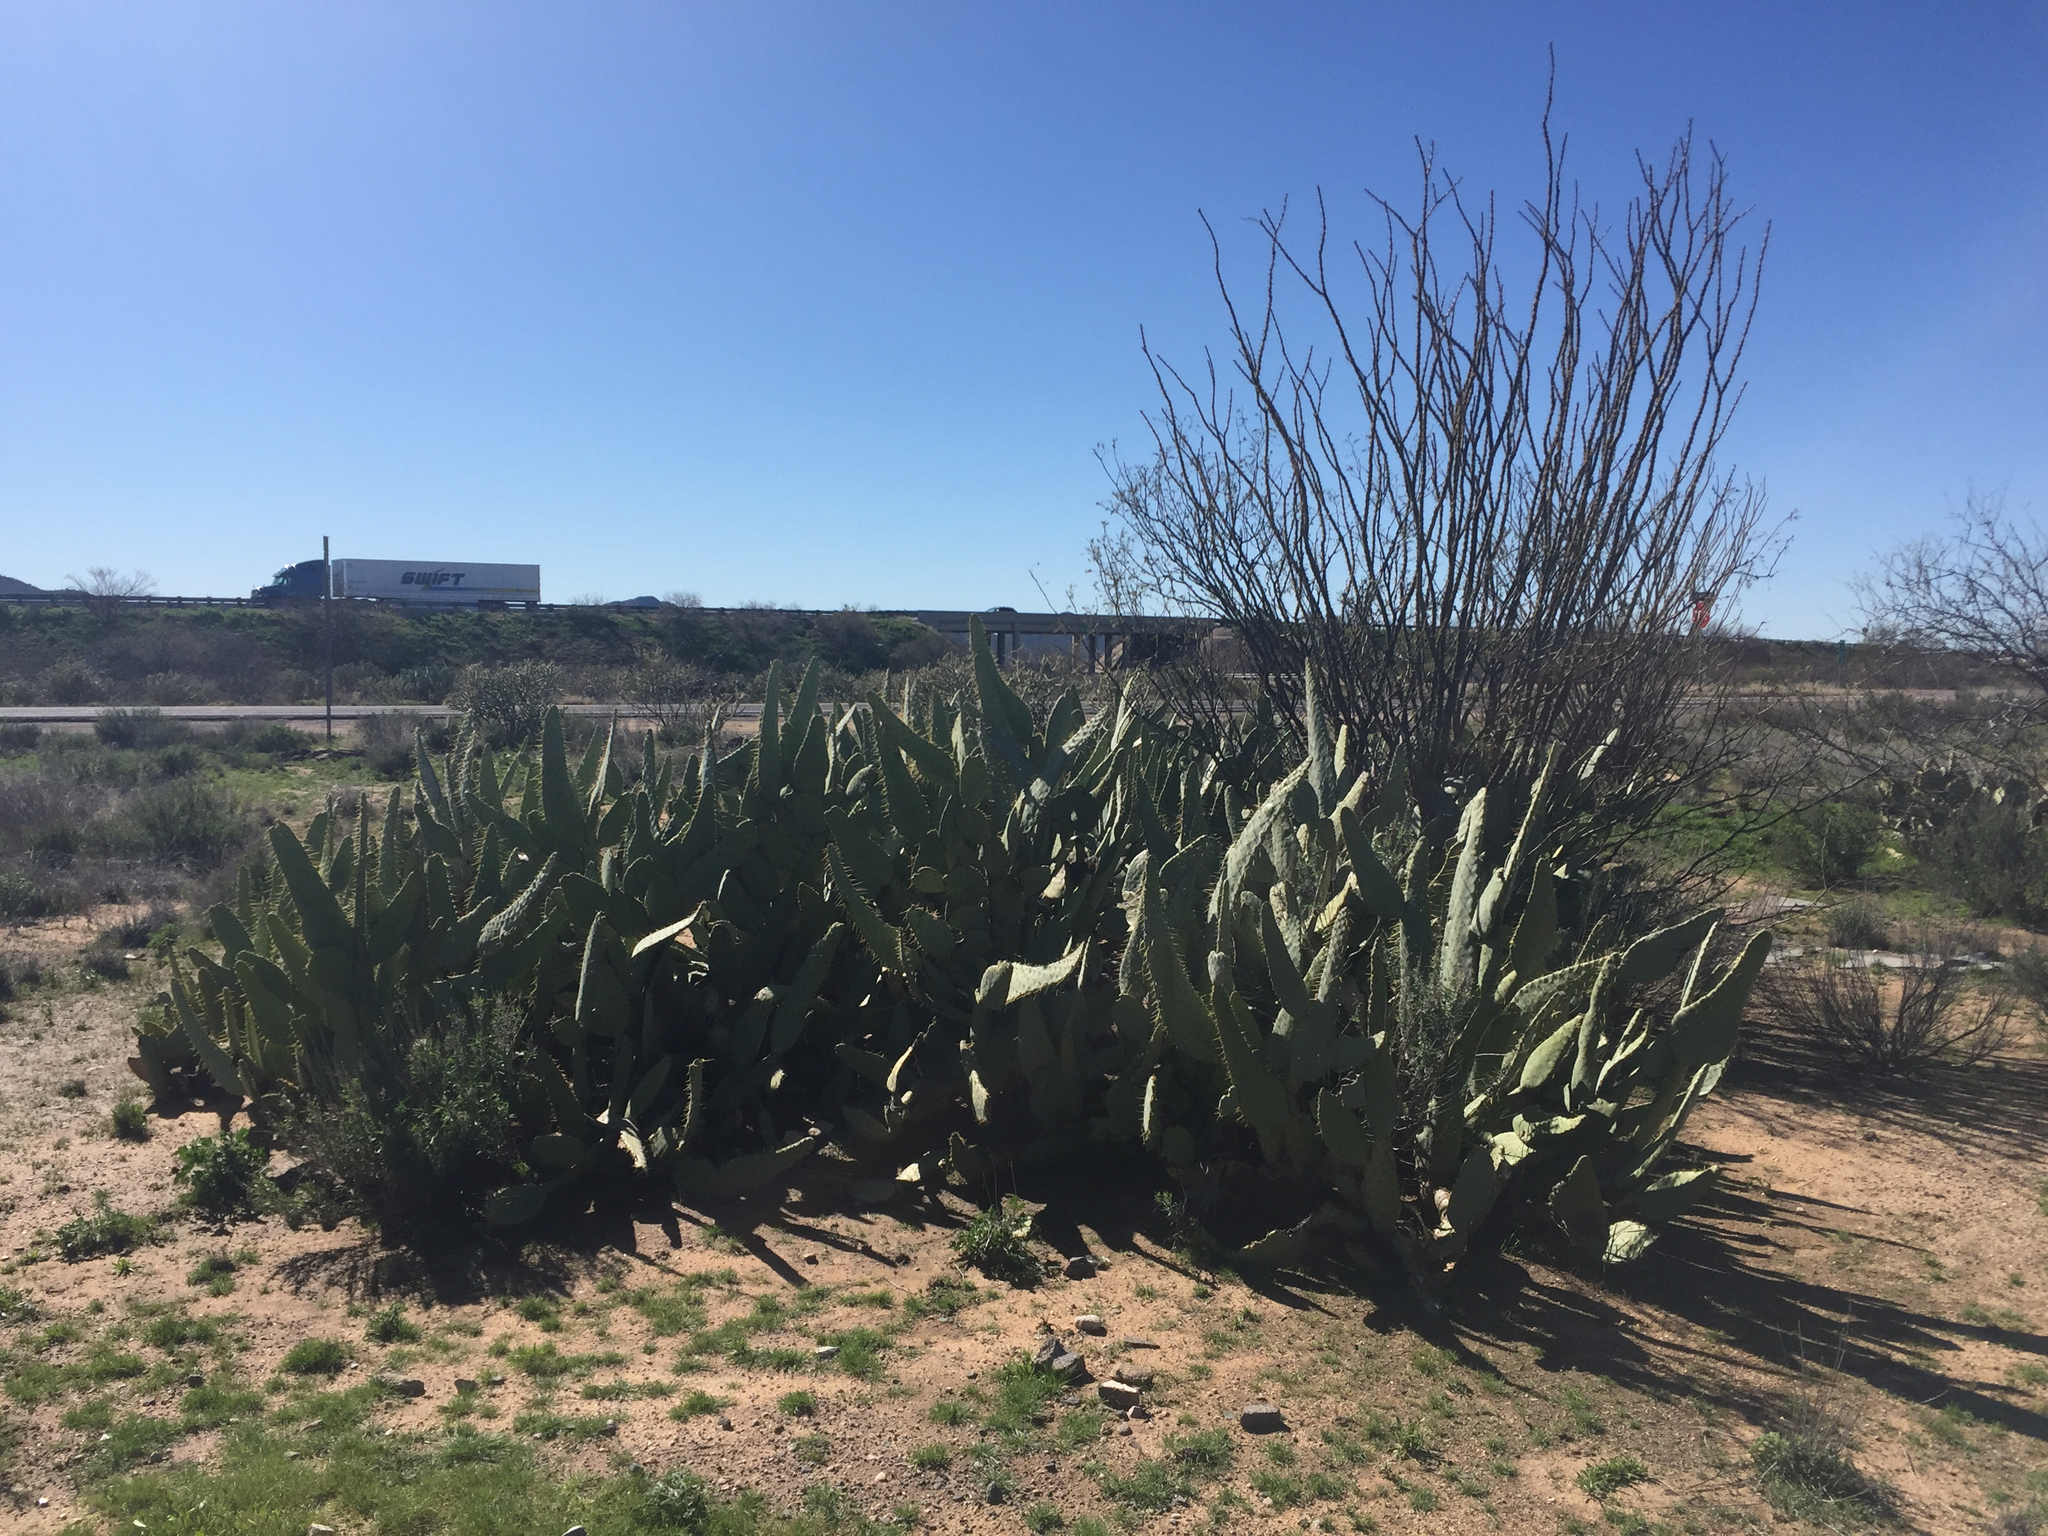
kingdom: Plantae
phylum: Tracheophyta
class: Magnoliopsida
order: Caryophyllales
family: Cactaceae
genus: Opuntia
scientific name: Opuntia engelmannii
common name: Cactus-apple
